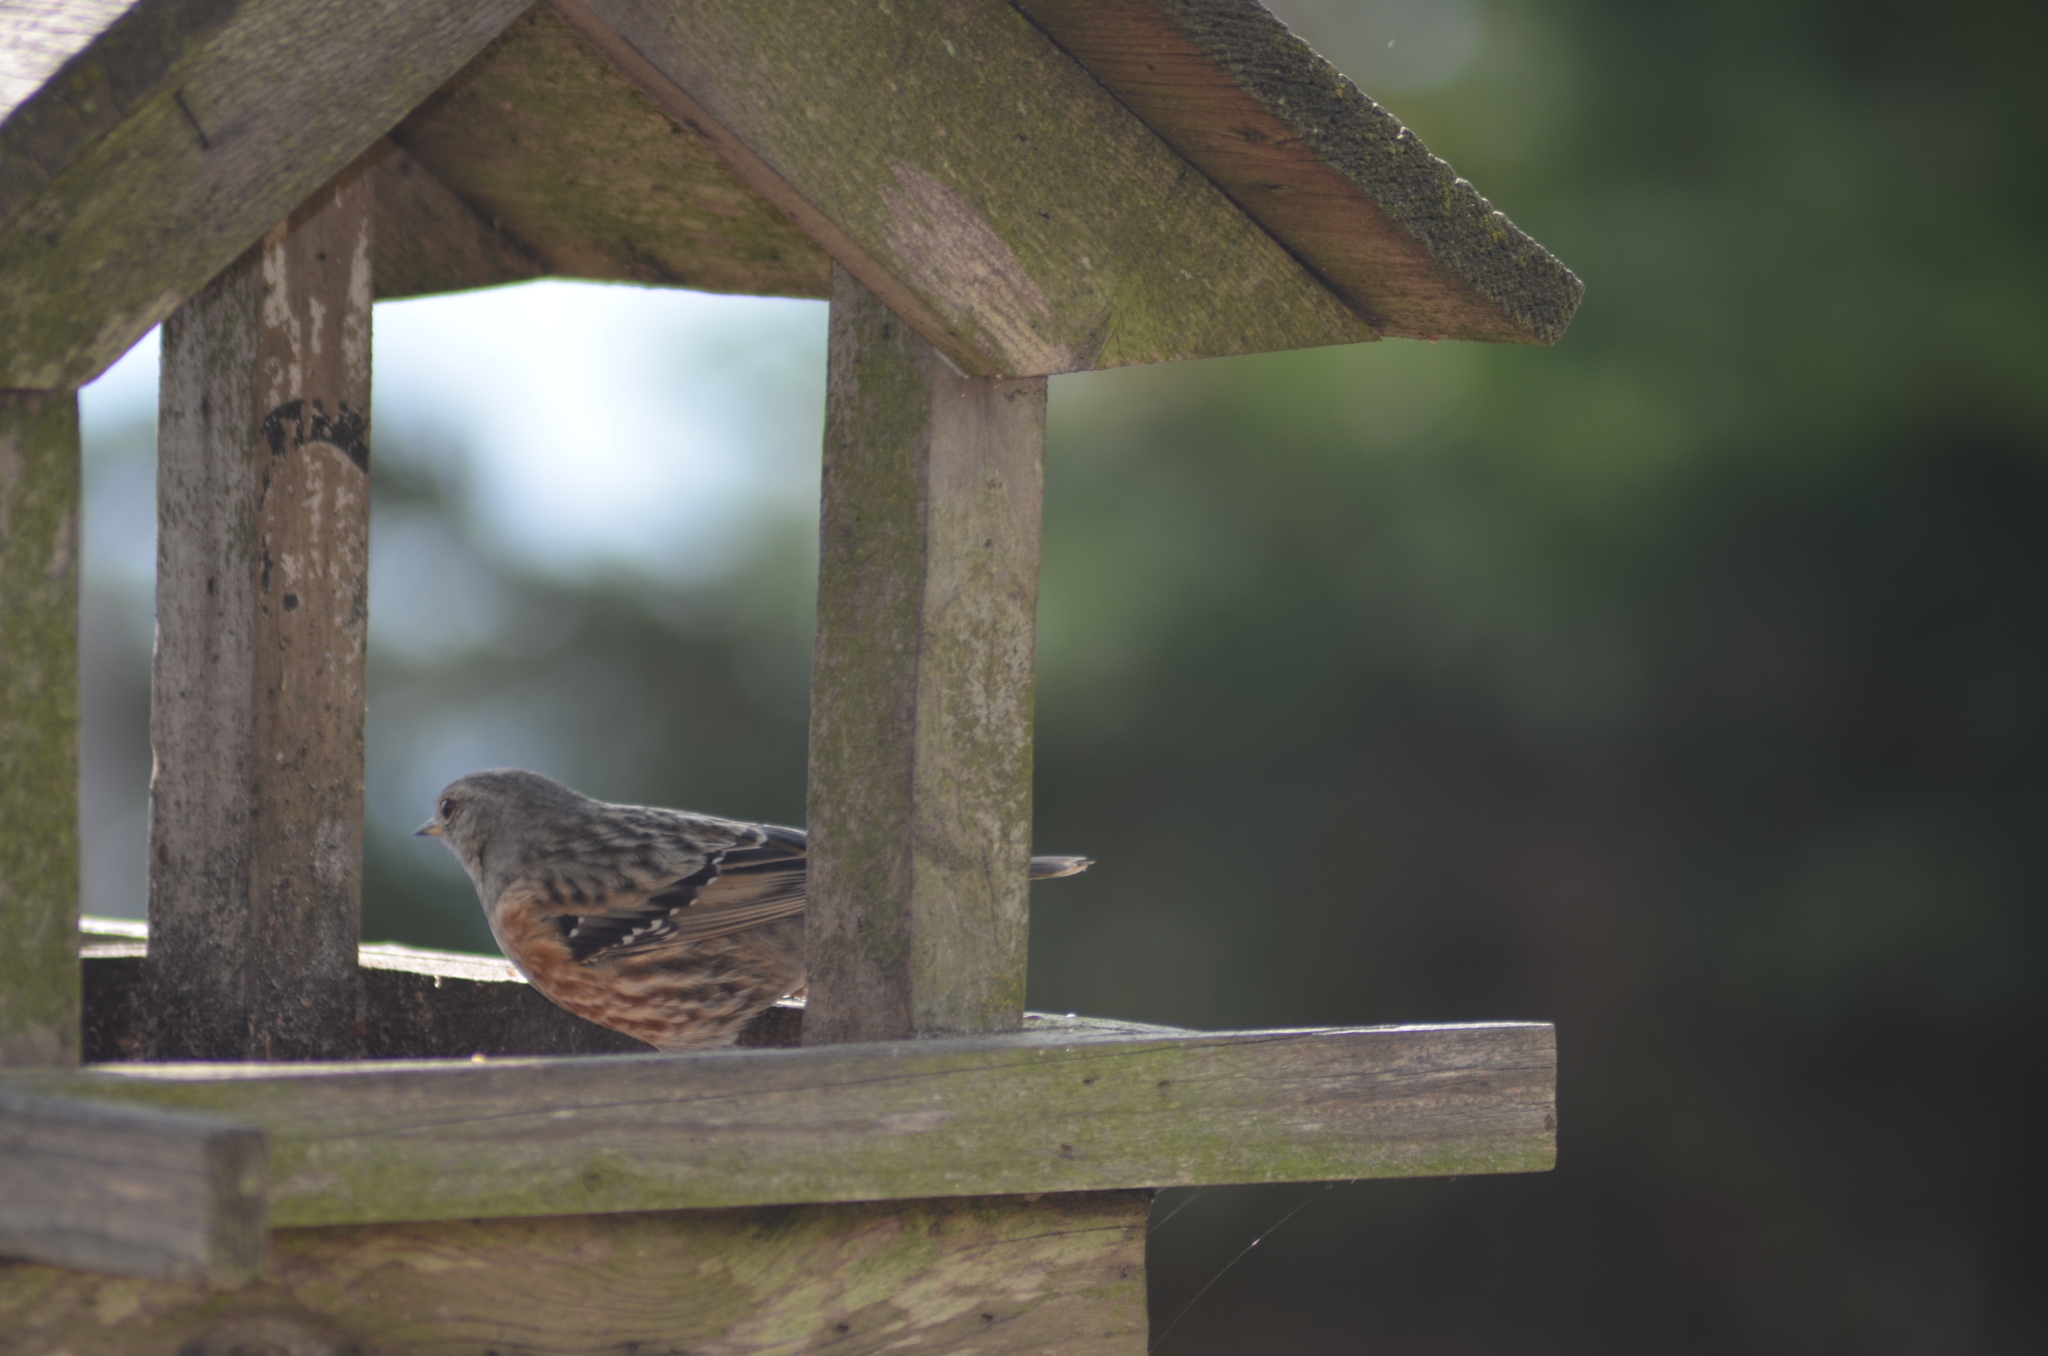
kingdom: Animalia
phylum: Chordata
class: Aves
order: Passeriformes
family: Prunellidae
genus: Prunella
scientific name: Prunella collaris
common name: Alpine accentor
